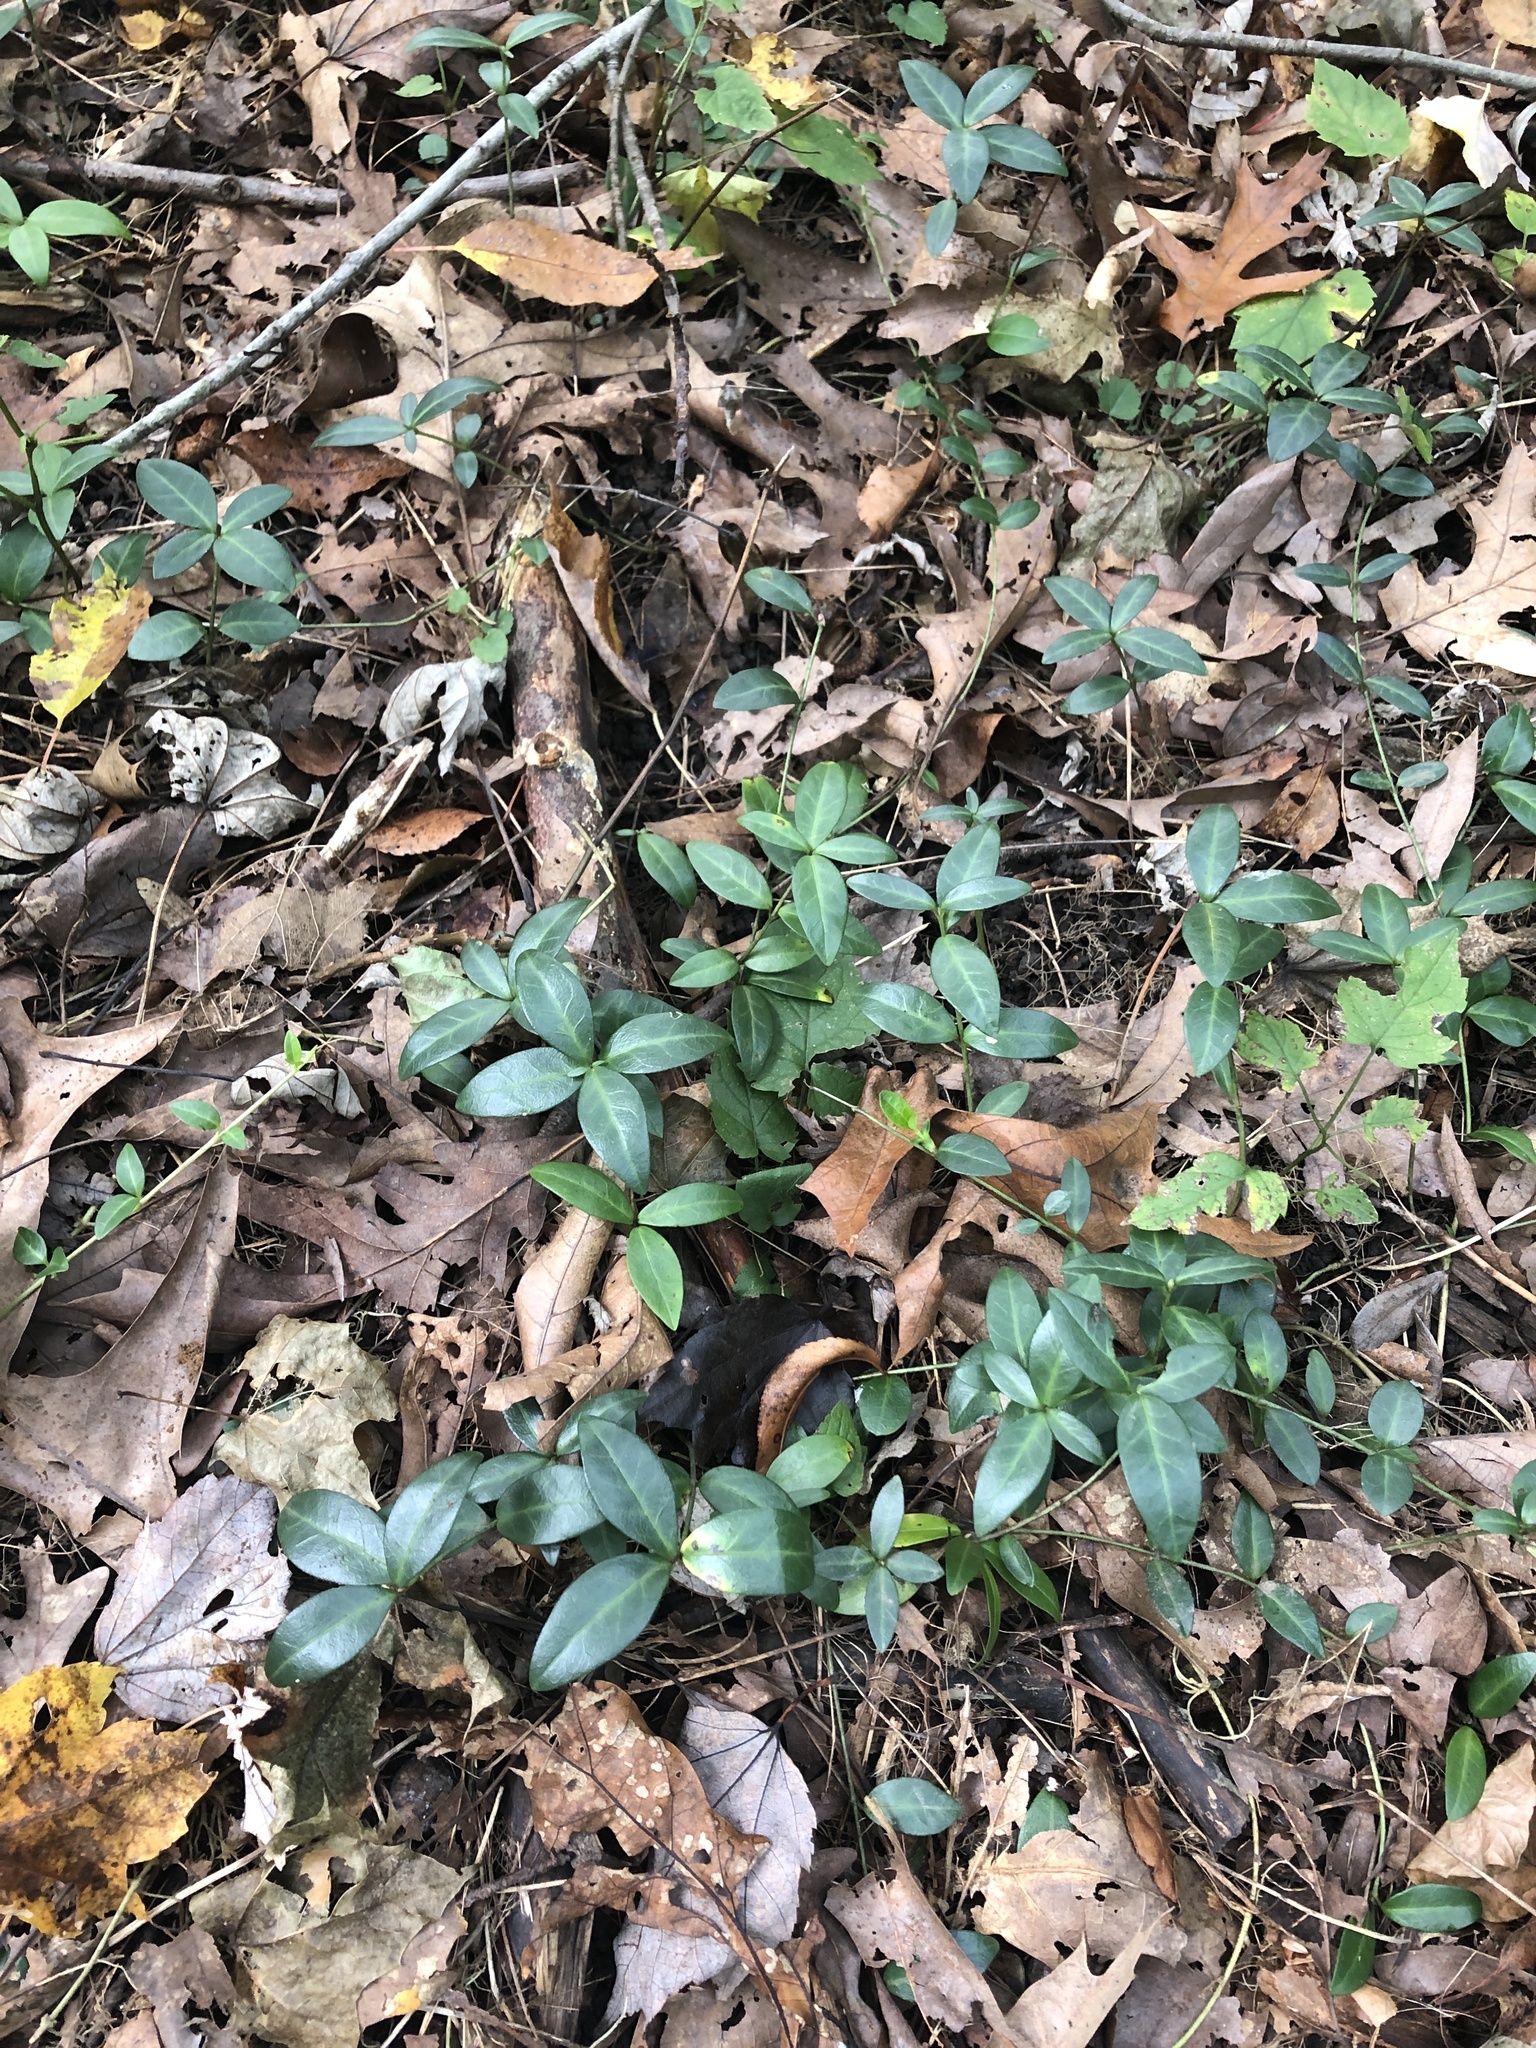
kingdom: Plantae
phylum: Tracheophyta
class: Magnoliopsida
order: Gentianales
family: Apocynaceae
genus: Vinca
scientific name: Vinca minor
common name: Lesser periwinkle
